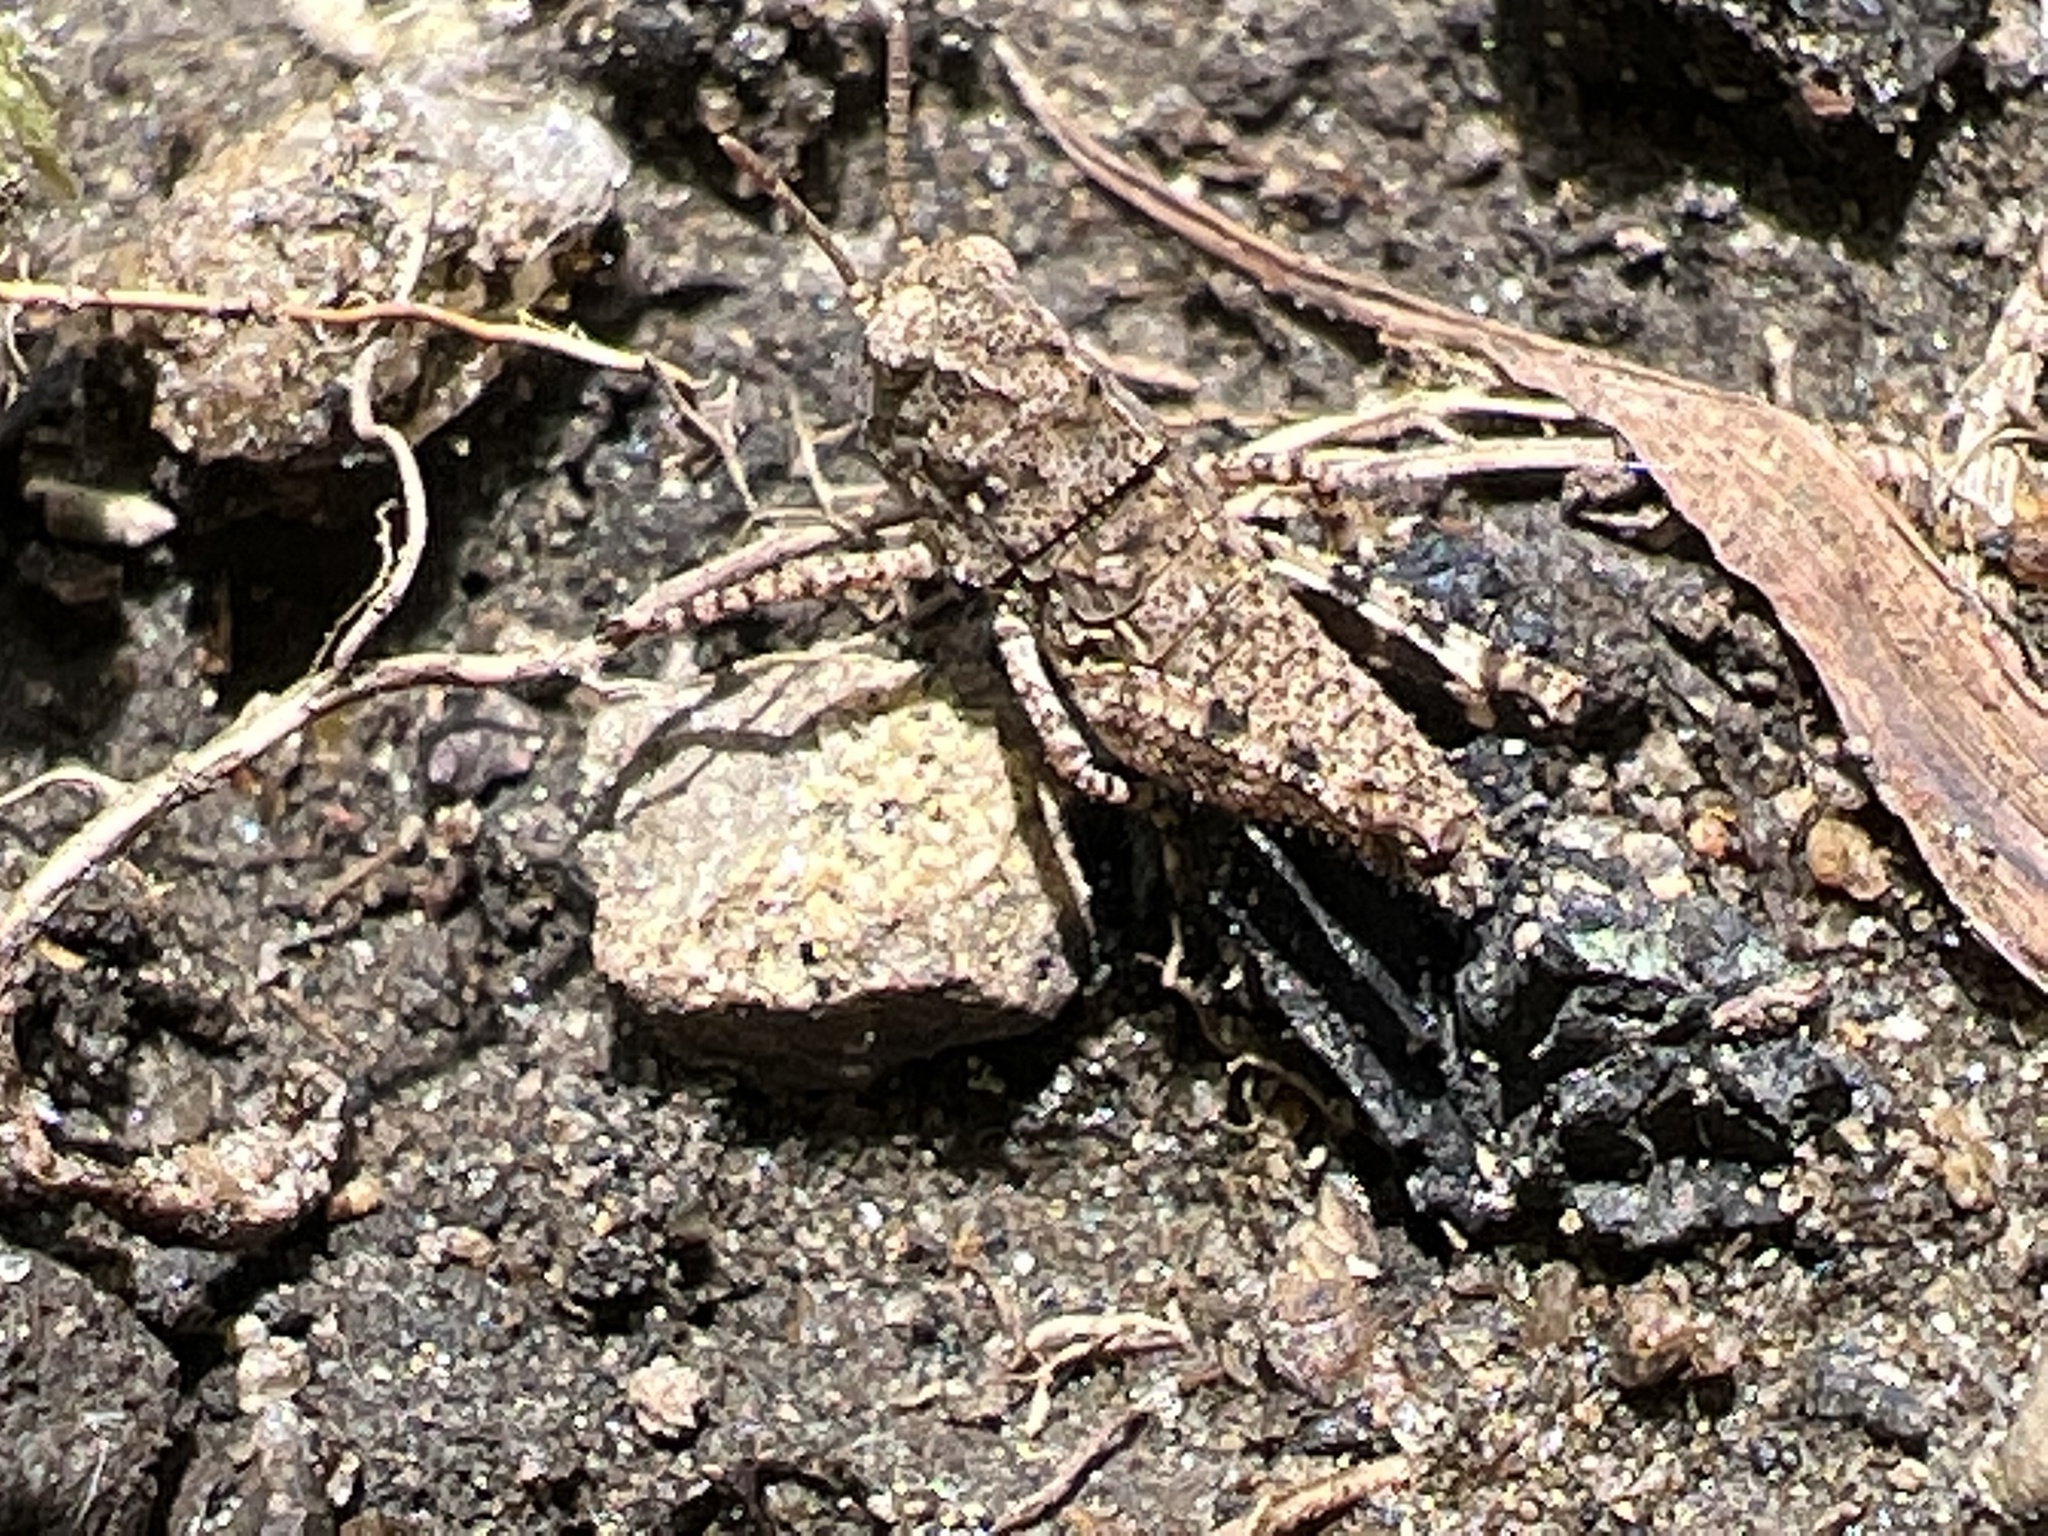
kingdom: Animalia
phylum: Arthropoda
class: Insecta
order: Orthoptera
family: Acrididae
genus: Dissosteira
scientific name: Dissosteira carolina
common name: Carolina grasshopper
